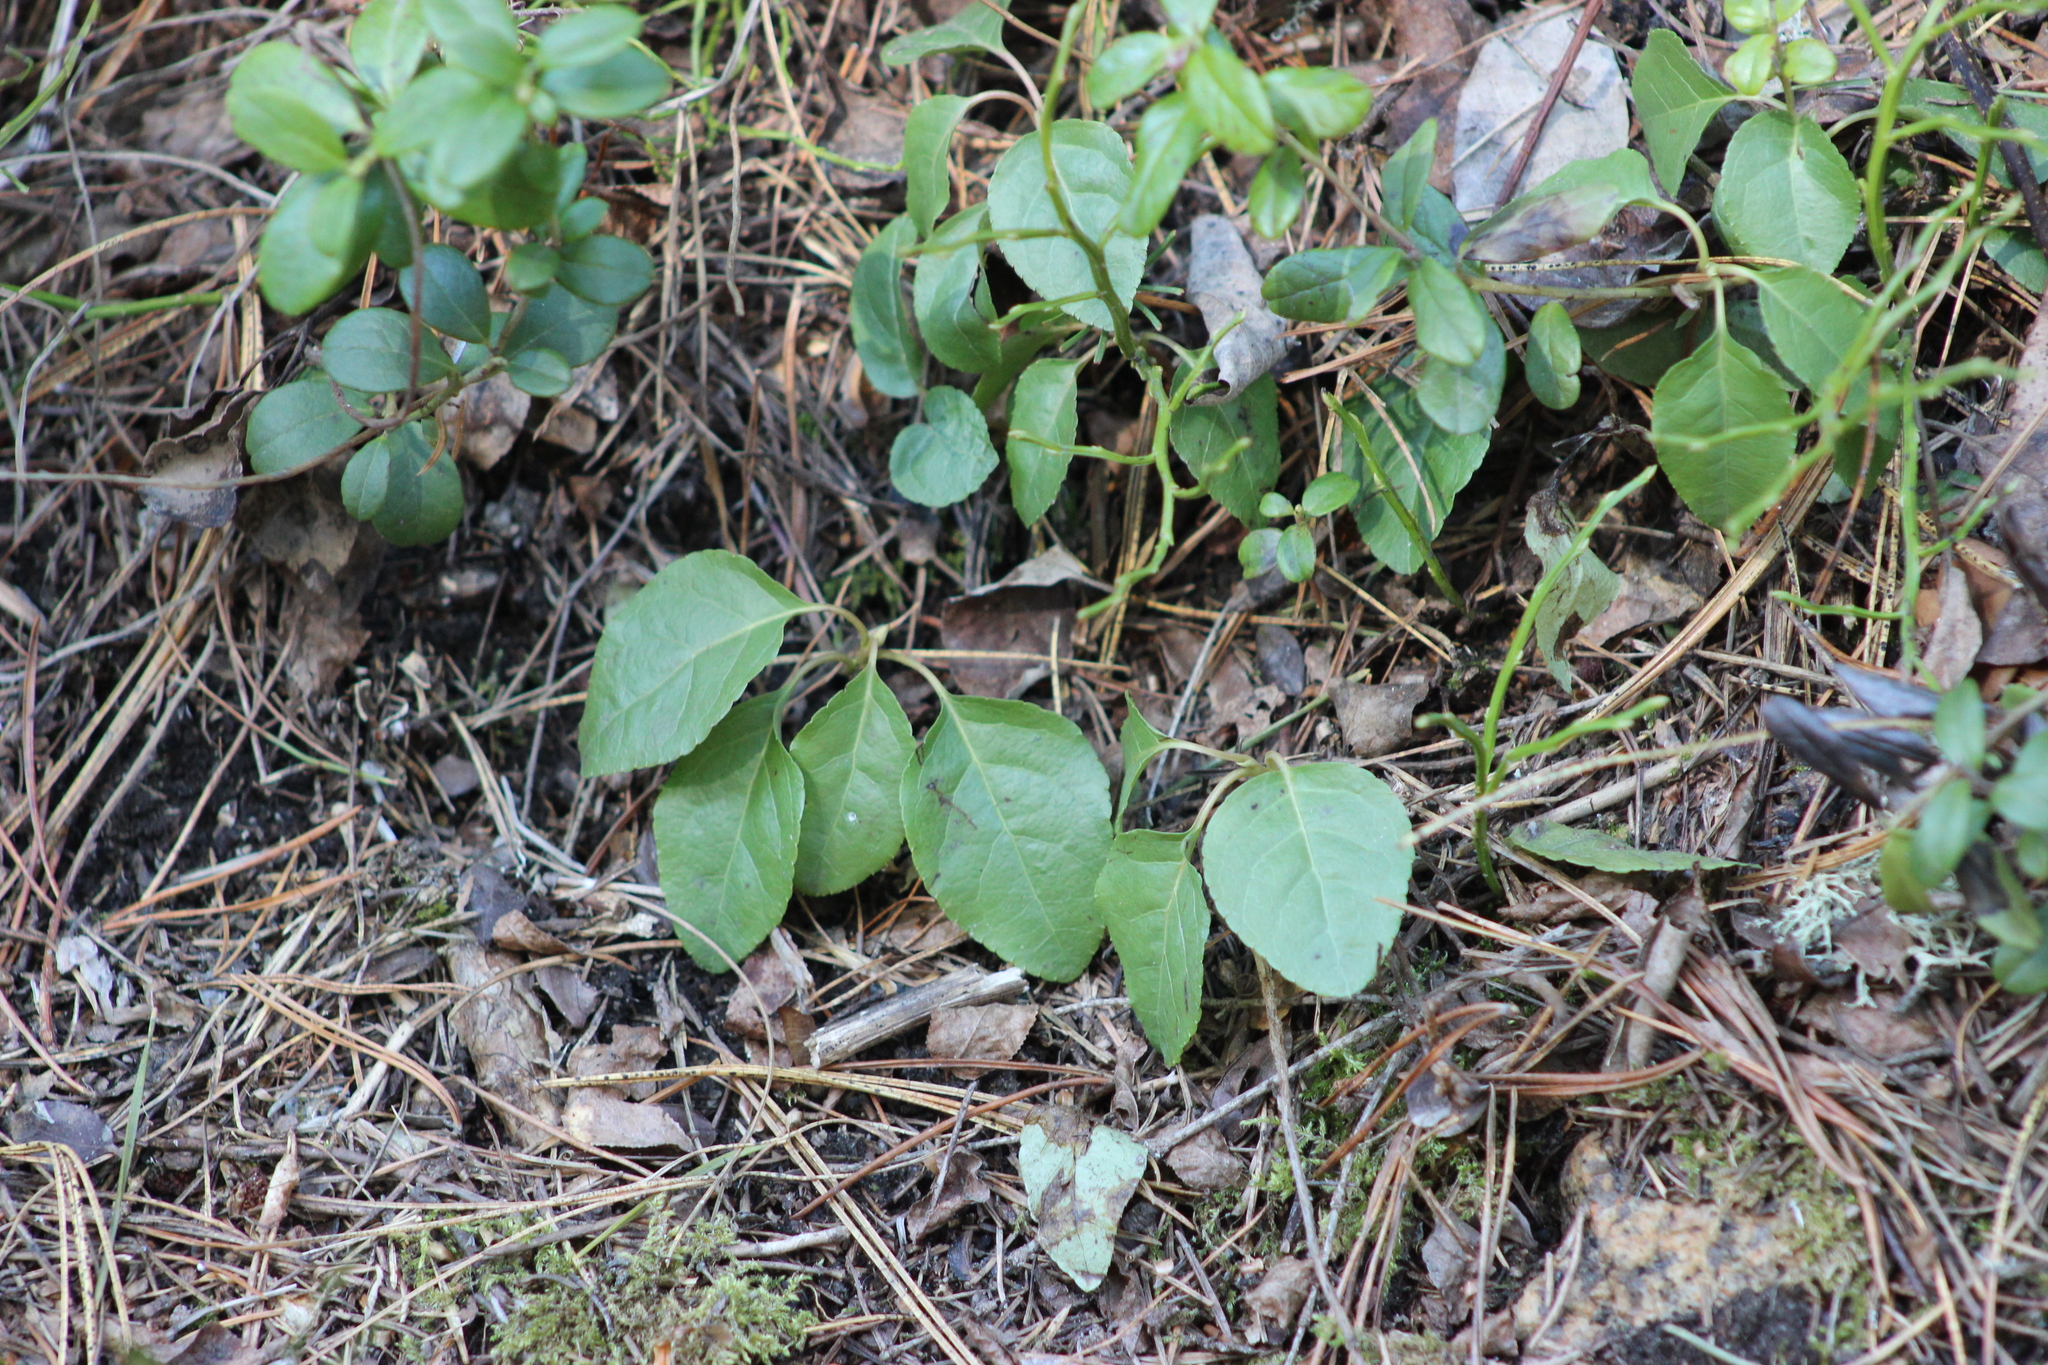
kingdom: Plantae
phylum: Tracheophyta
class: Magnoliopsida
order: Ericales
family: Ericaceae
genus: Orthilia
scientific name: Orthilia secunda
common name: One-sided orthilia
